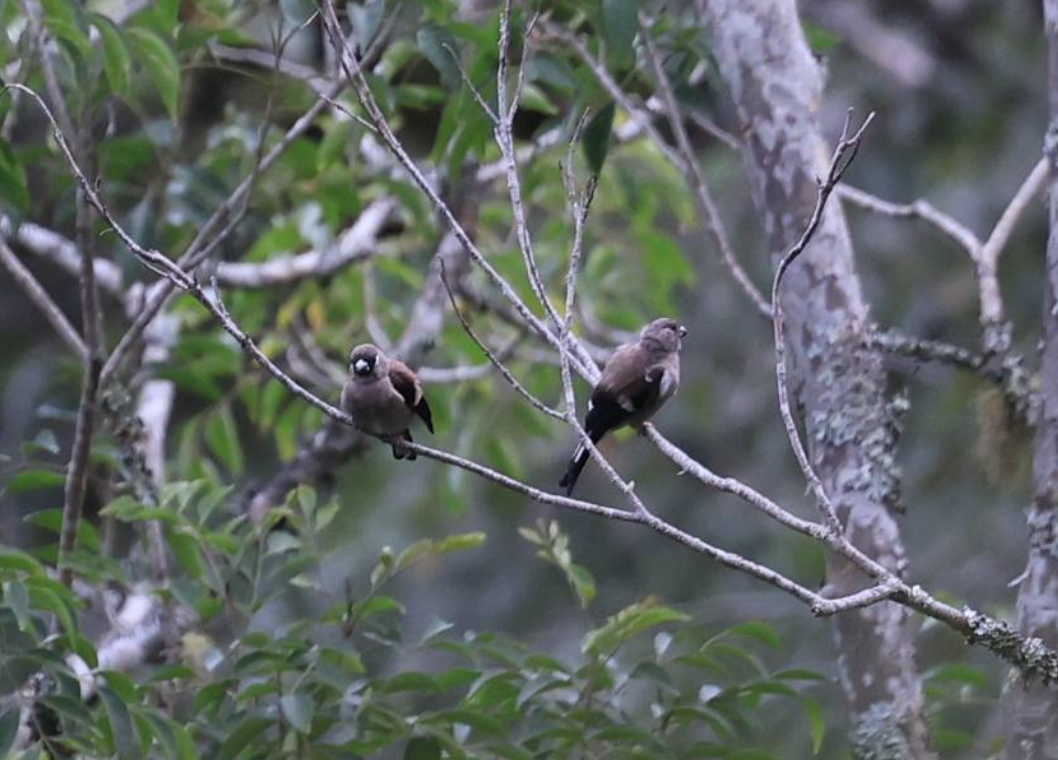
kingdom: Animalia
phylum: Chordata
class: Aves
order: Passeriformes
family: Fringillidae
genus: Pyrrhula
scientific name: Pyrrhula nipalensis
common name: Brown bullfinch
